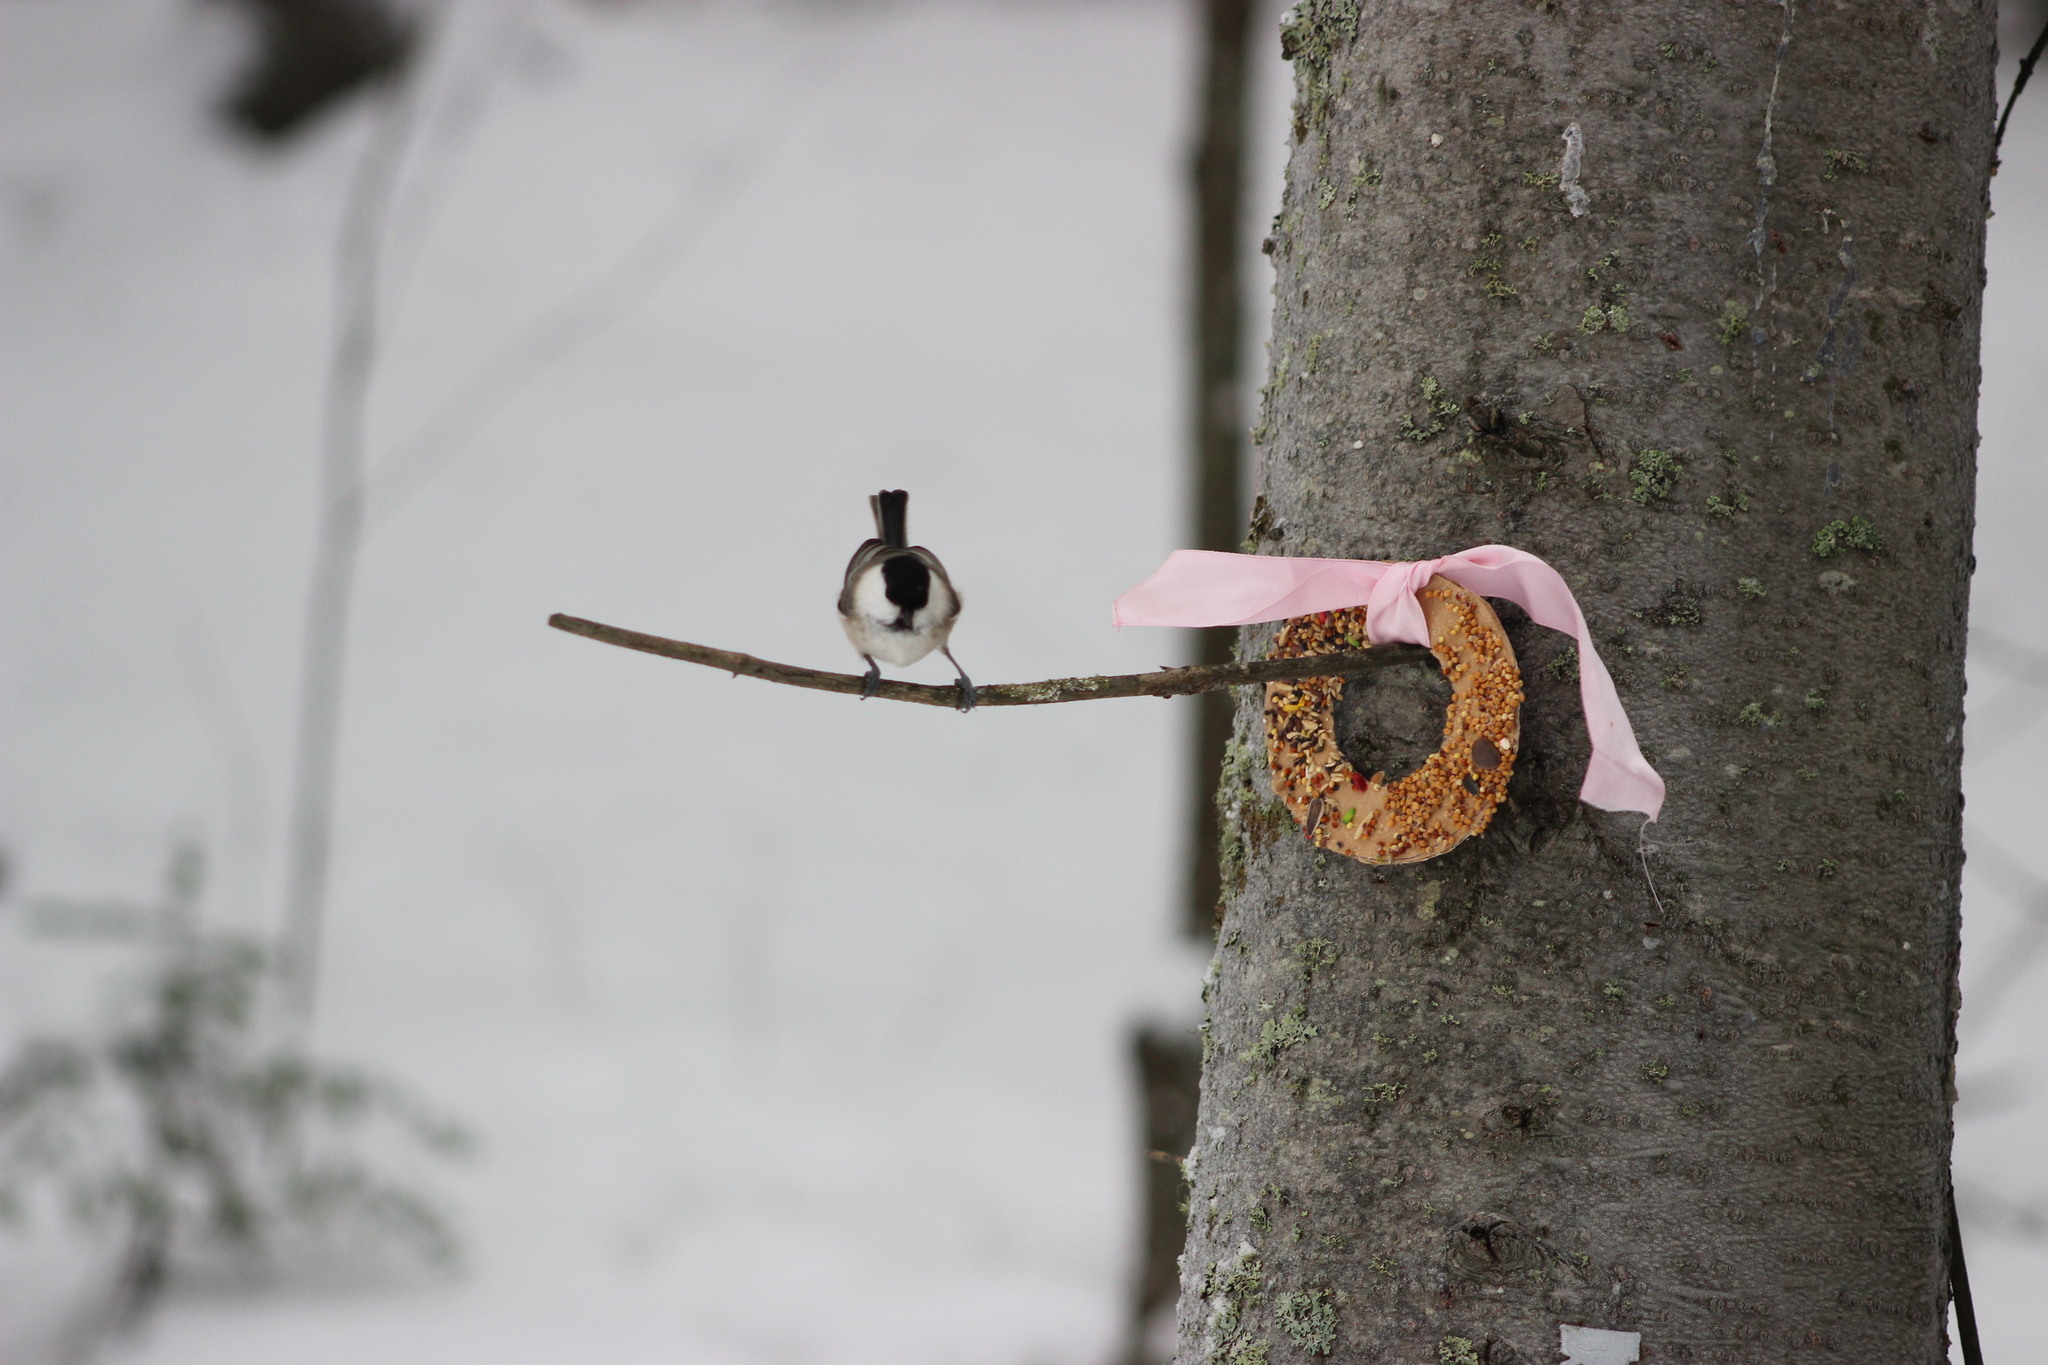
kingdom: Animalia
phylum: Chordata
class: Aves
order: Passeriformes
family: Sittidae
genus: Sitta
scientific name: Sitta europaea
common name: Eurasian nuthatch
